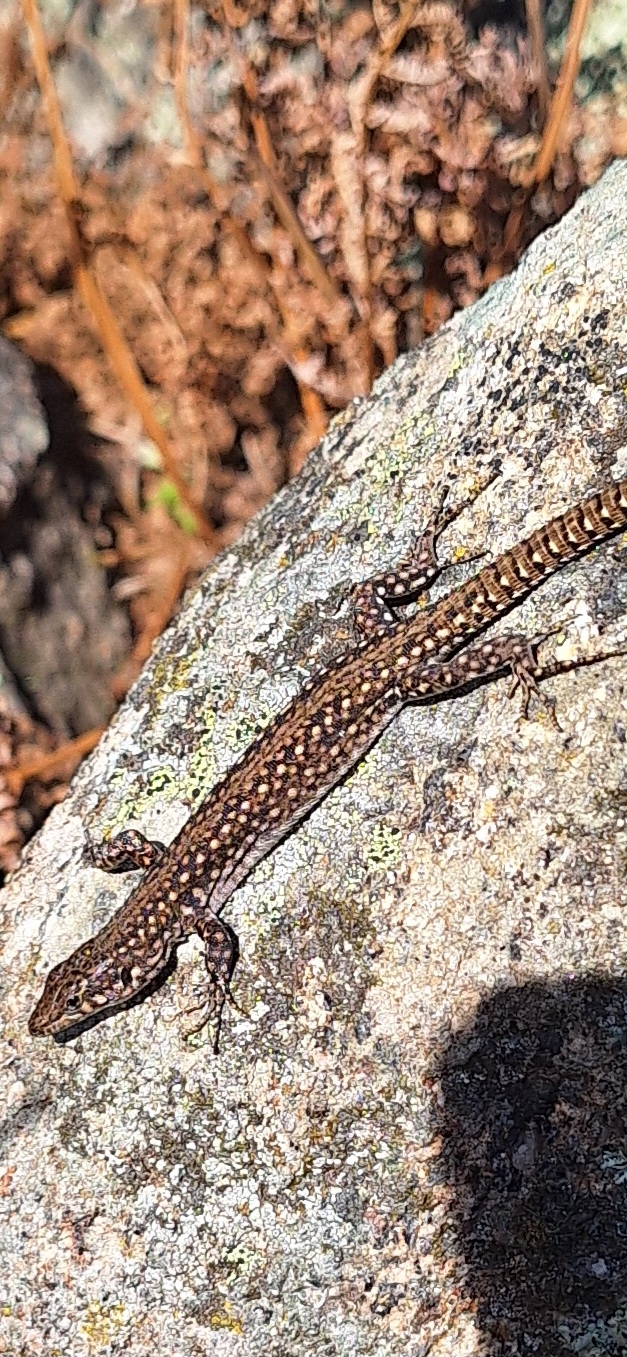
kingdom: Animalia
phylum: Chordata
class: Squamata
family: Lacertidae
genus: Podarcis
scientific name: Podarcis guadarramae
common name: Guadarrama wall lizard
